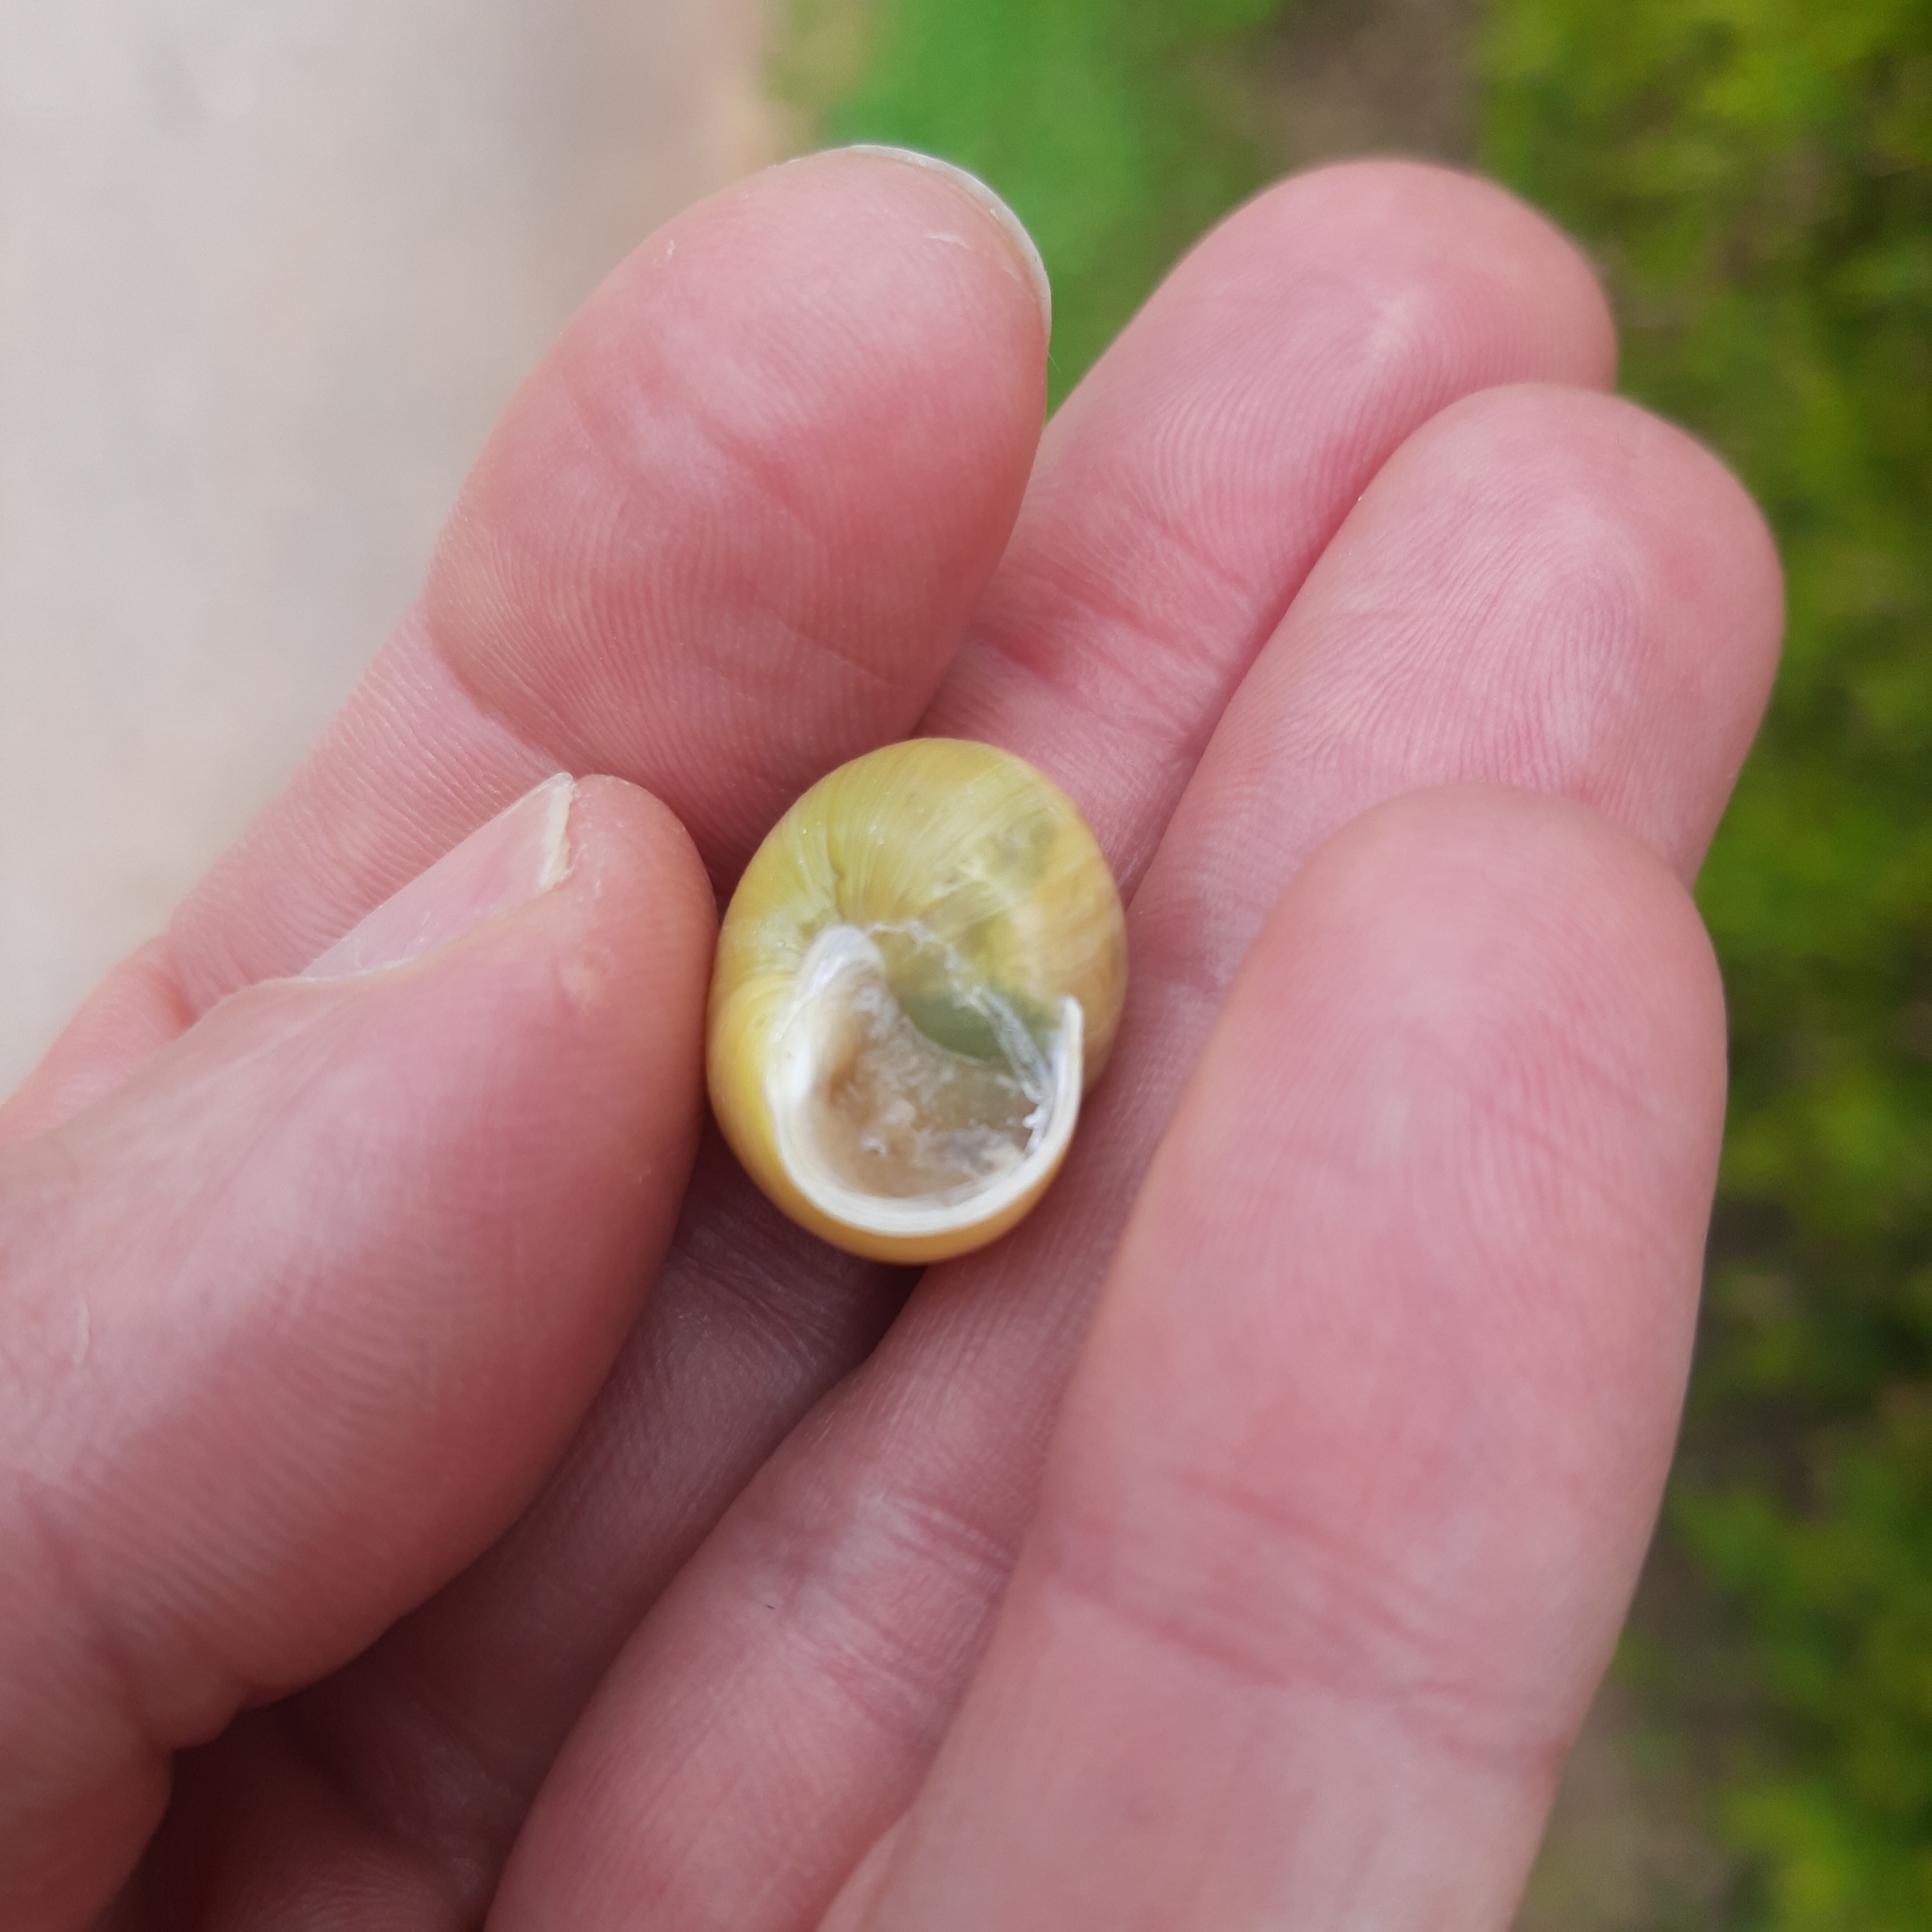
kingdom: Animalia
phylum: Mollusca
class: Gastropoda
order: Stylommatophora
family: Helicidae
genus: Cepaea
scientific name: Cepaea hortensis
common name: White-lip gardensnail
